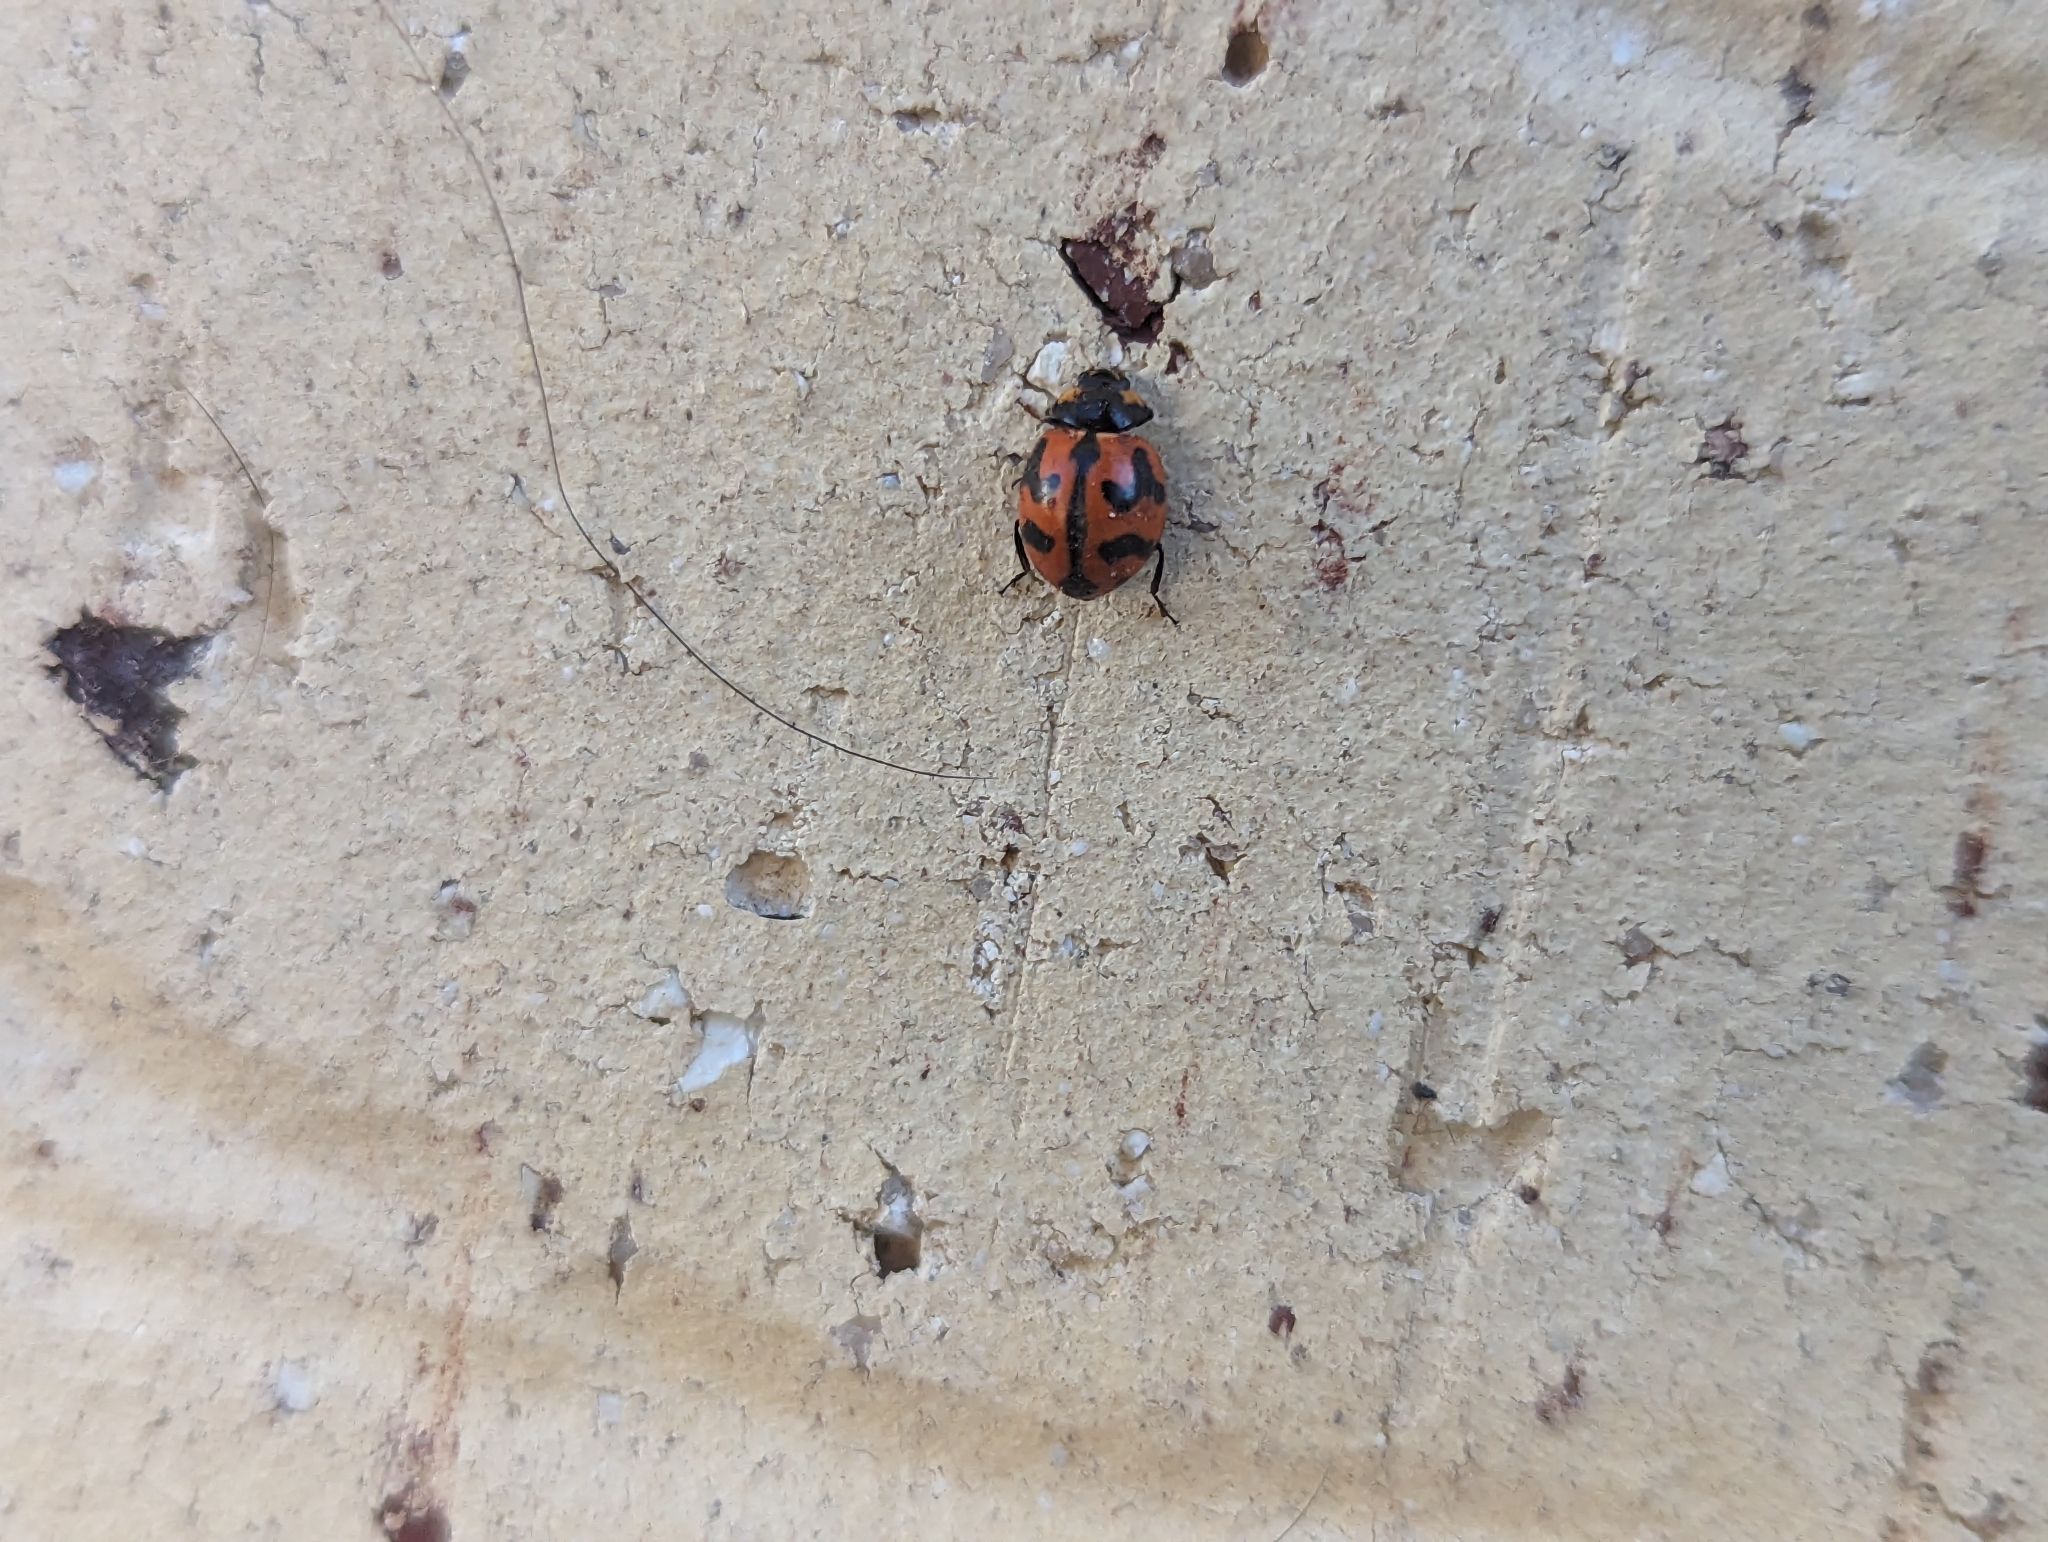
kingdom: Animalia
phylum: Arthropoda
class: Insecta
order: Coleoptera
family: Coccinellidae
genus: Coccinella
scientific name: Coccinella transversalis
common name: Transverse lady beetle
